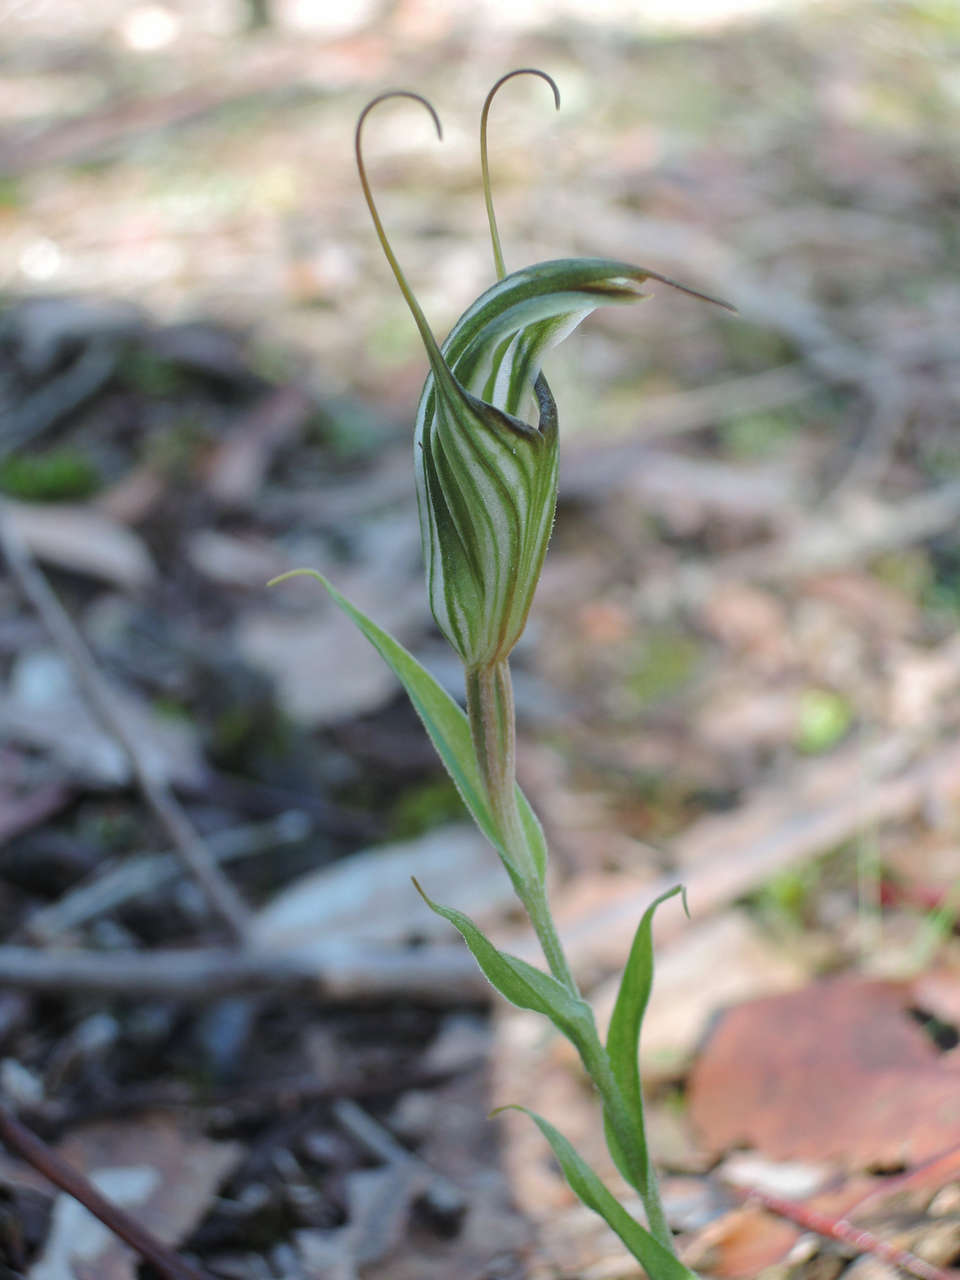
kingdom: Plantae
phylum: Tracheophyta
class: Liliopsida
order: Asparagales
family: Orchidaceae
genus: Pterostylis
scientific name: Pterostylis alata
